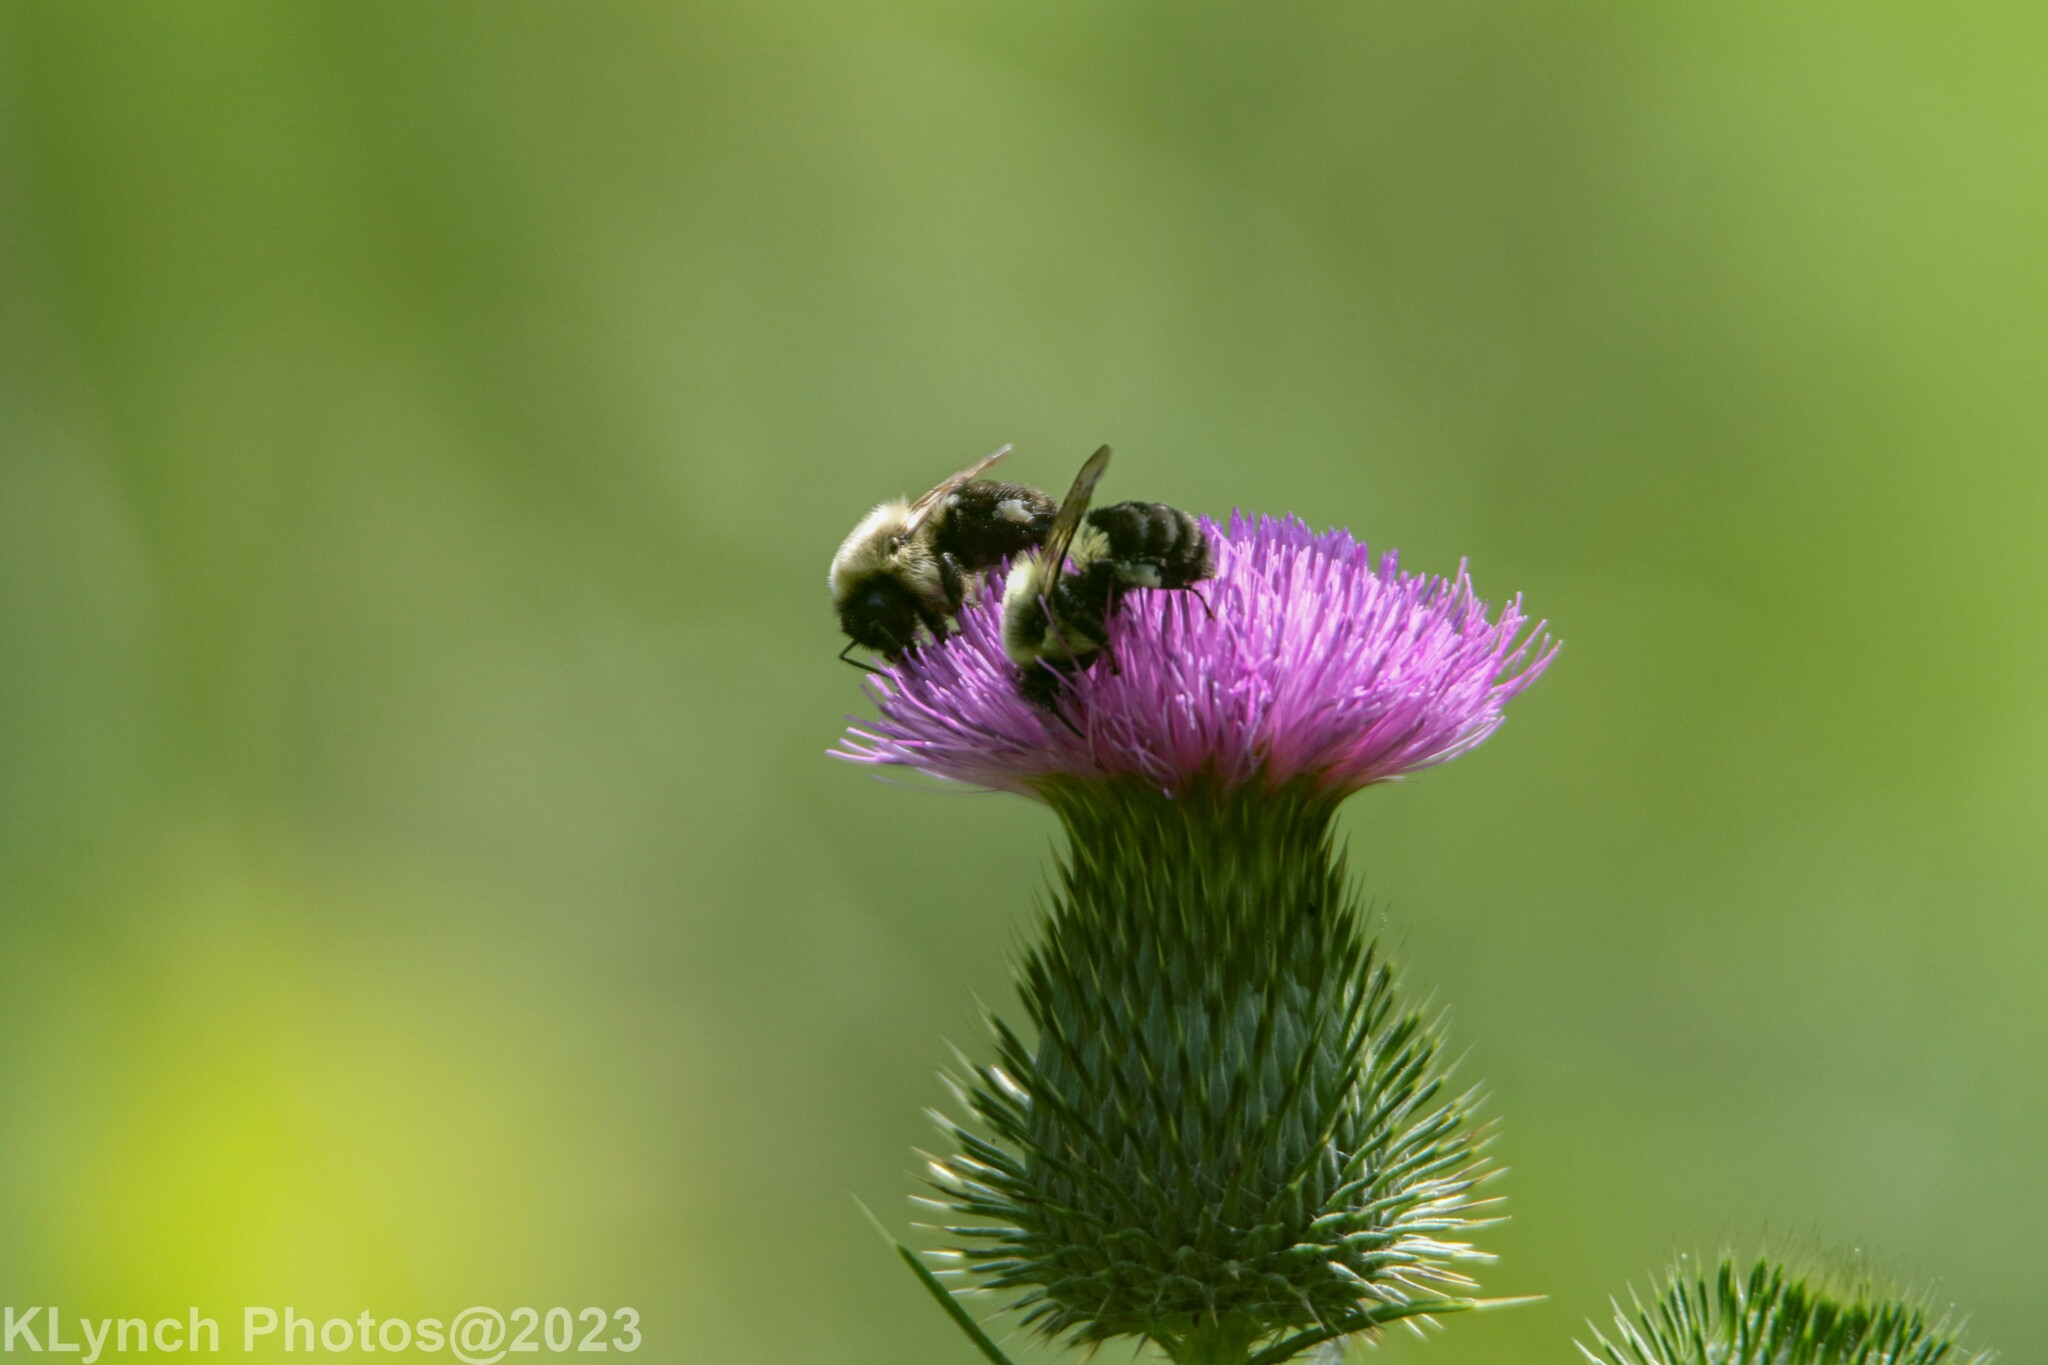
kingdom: Animalia
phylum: Arthropoda
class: Insecta
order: Hymenoptera
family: Apidae
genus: Bombus
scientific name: Bombus impatiens
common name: Common eastern bumble bee
